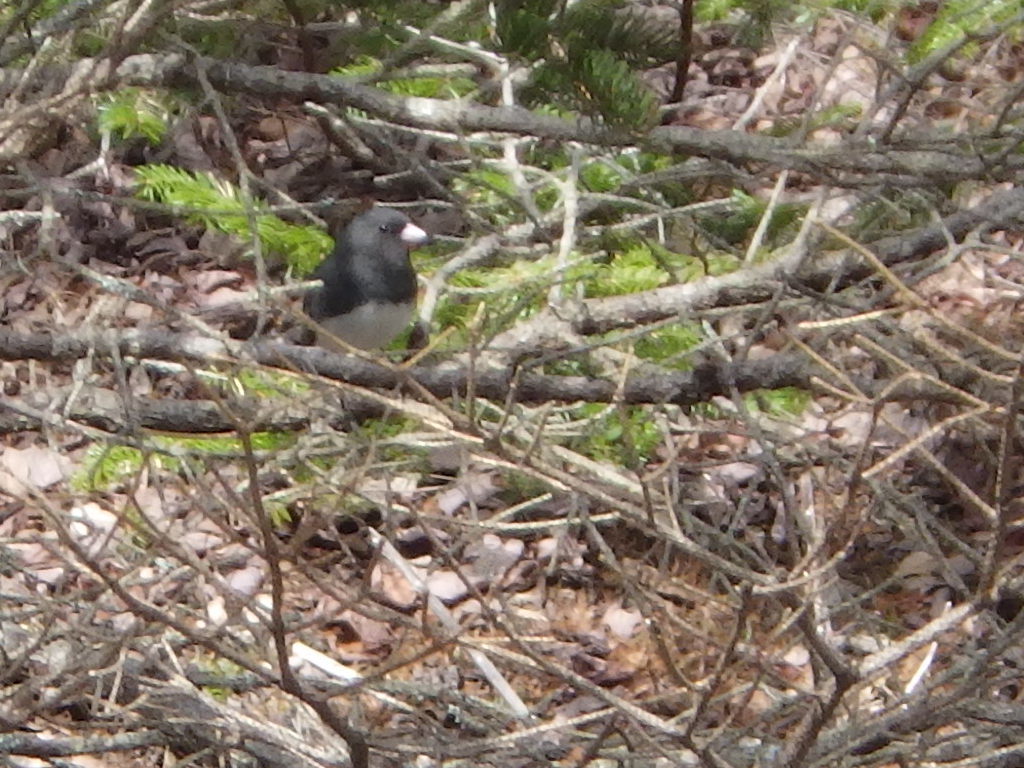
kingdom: Animalia
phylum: Chordata
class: Aves
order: Passeriformes
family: Passerellidae
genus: Junco
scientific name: Junco hyemalis
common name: Dark-eyed junco
